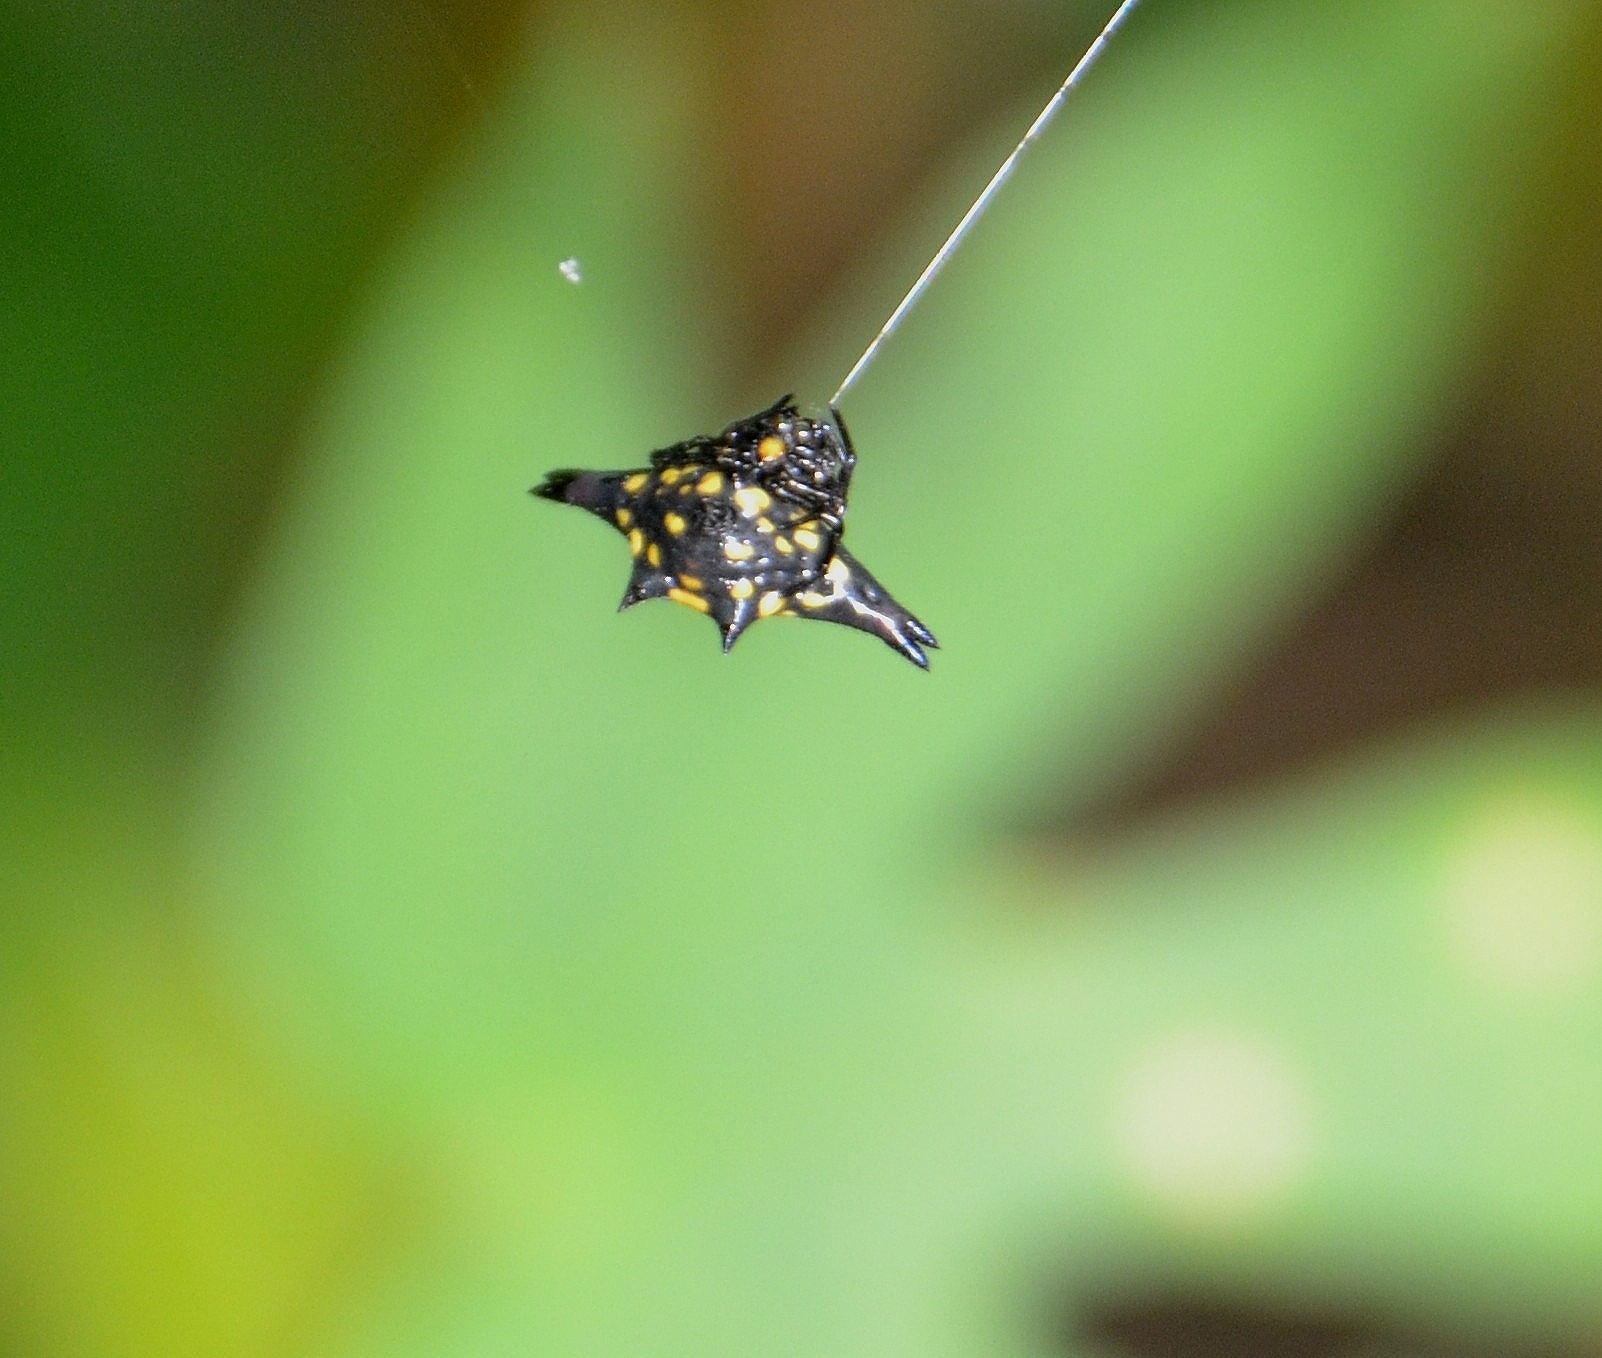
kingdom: Animalia
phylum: Arthropoda
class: Arachnida
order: Araneae
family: Araneidae
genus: Gasteracantha
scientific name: Gasteracantha geminata
